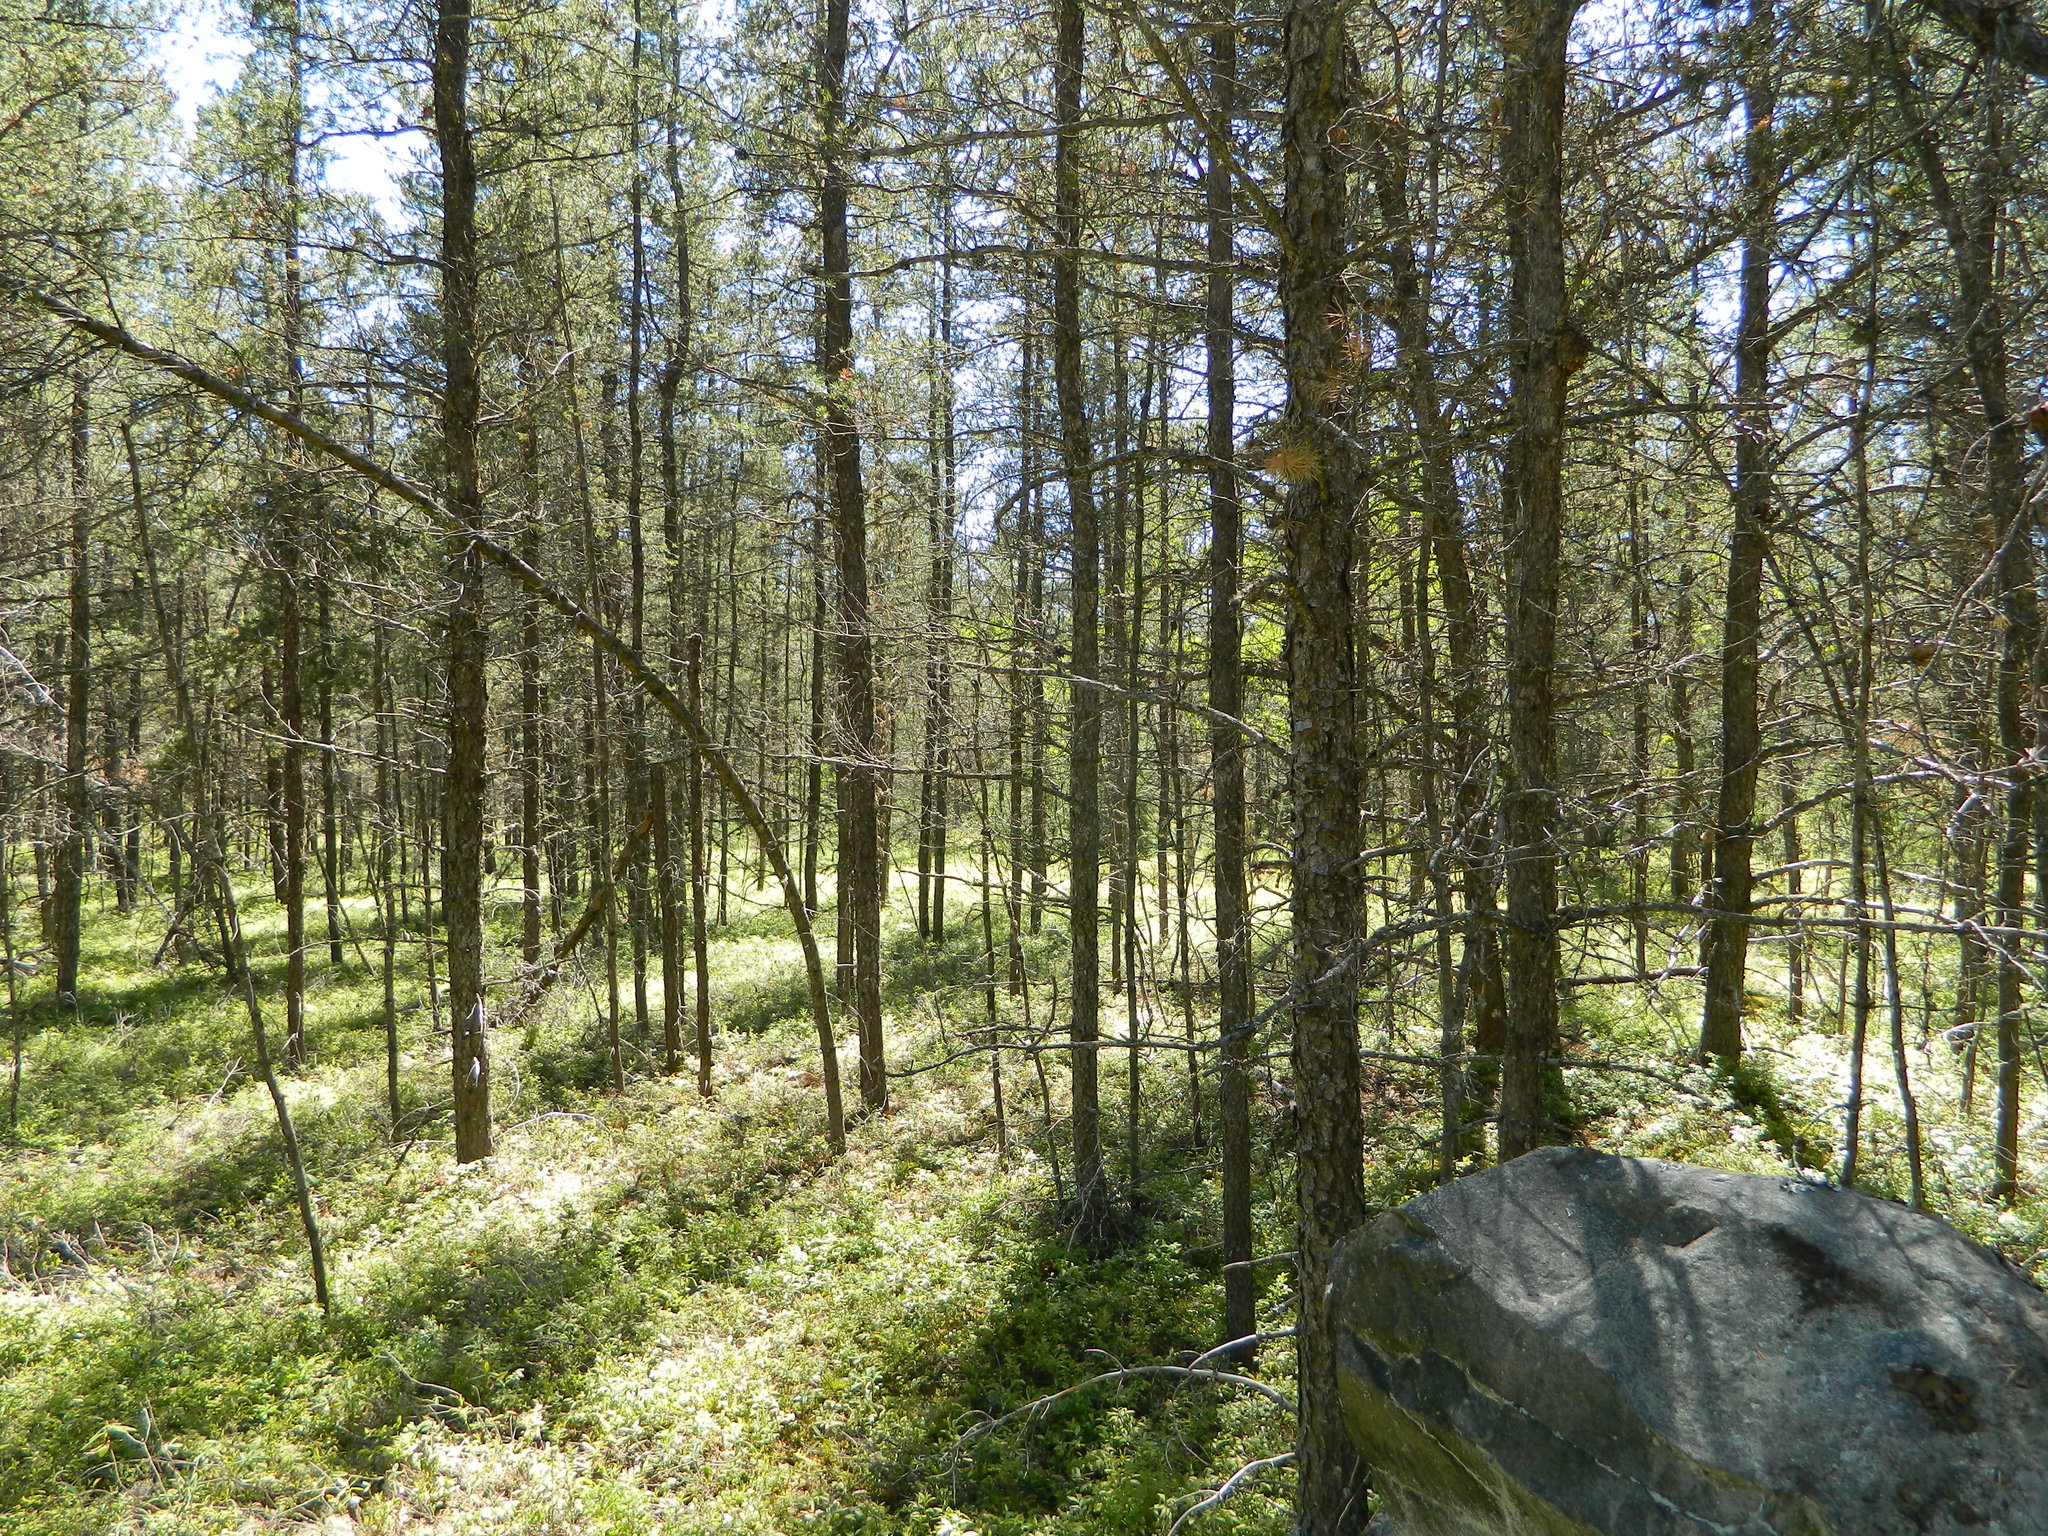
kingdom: Plantae
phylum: Tracheophyta
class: Pinopsida
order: Pinales
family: Pinaceae
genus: Pinus
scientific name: Pinus banksiana
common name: Jack pine
